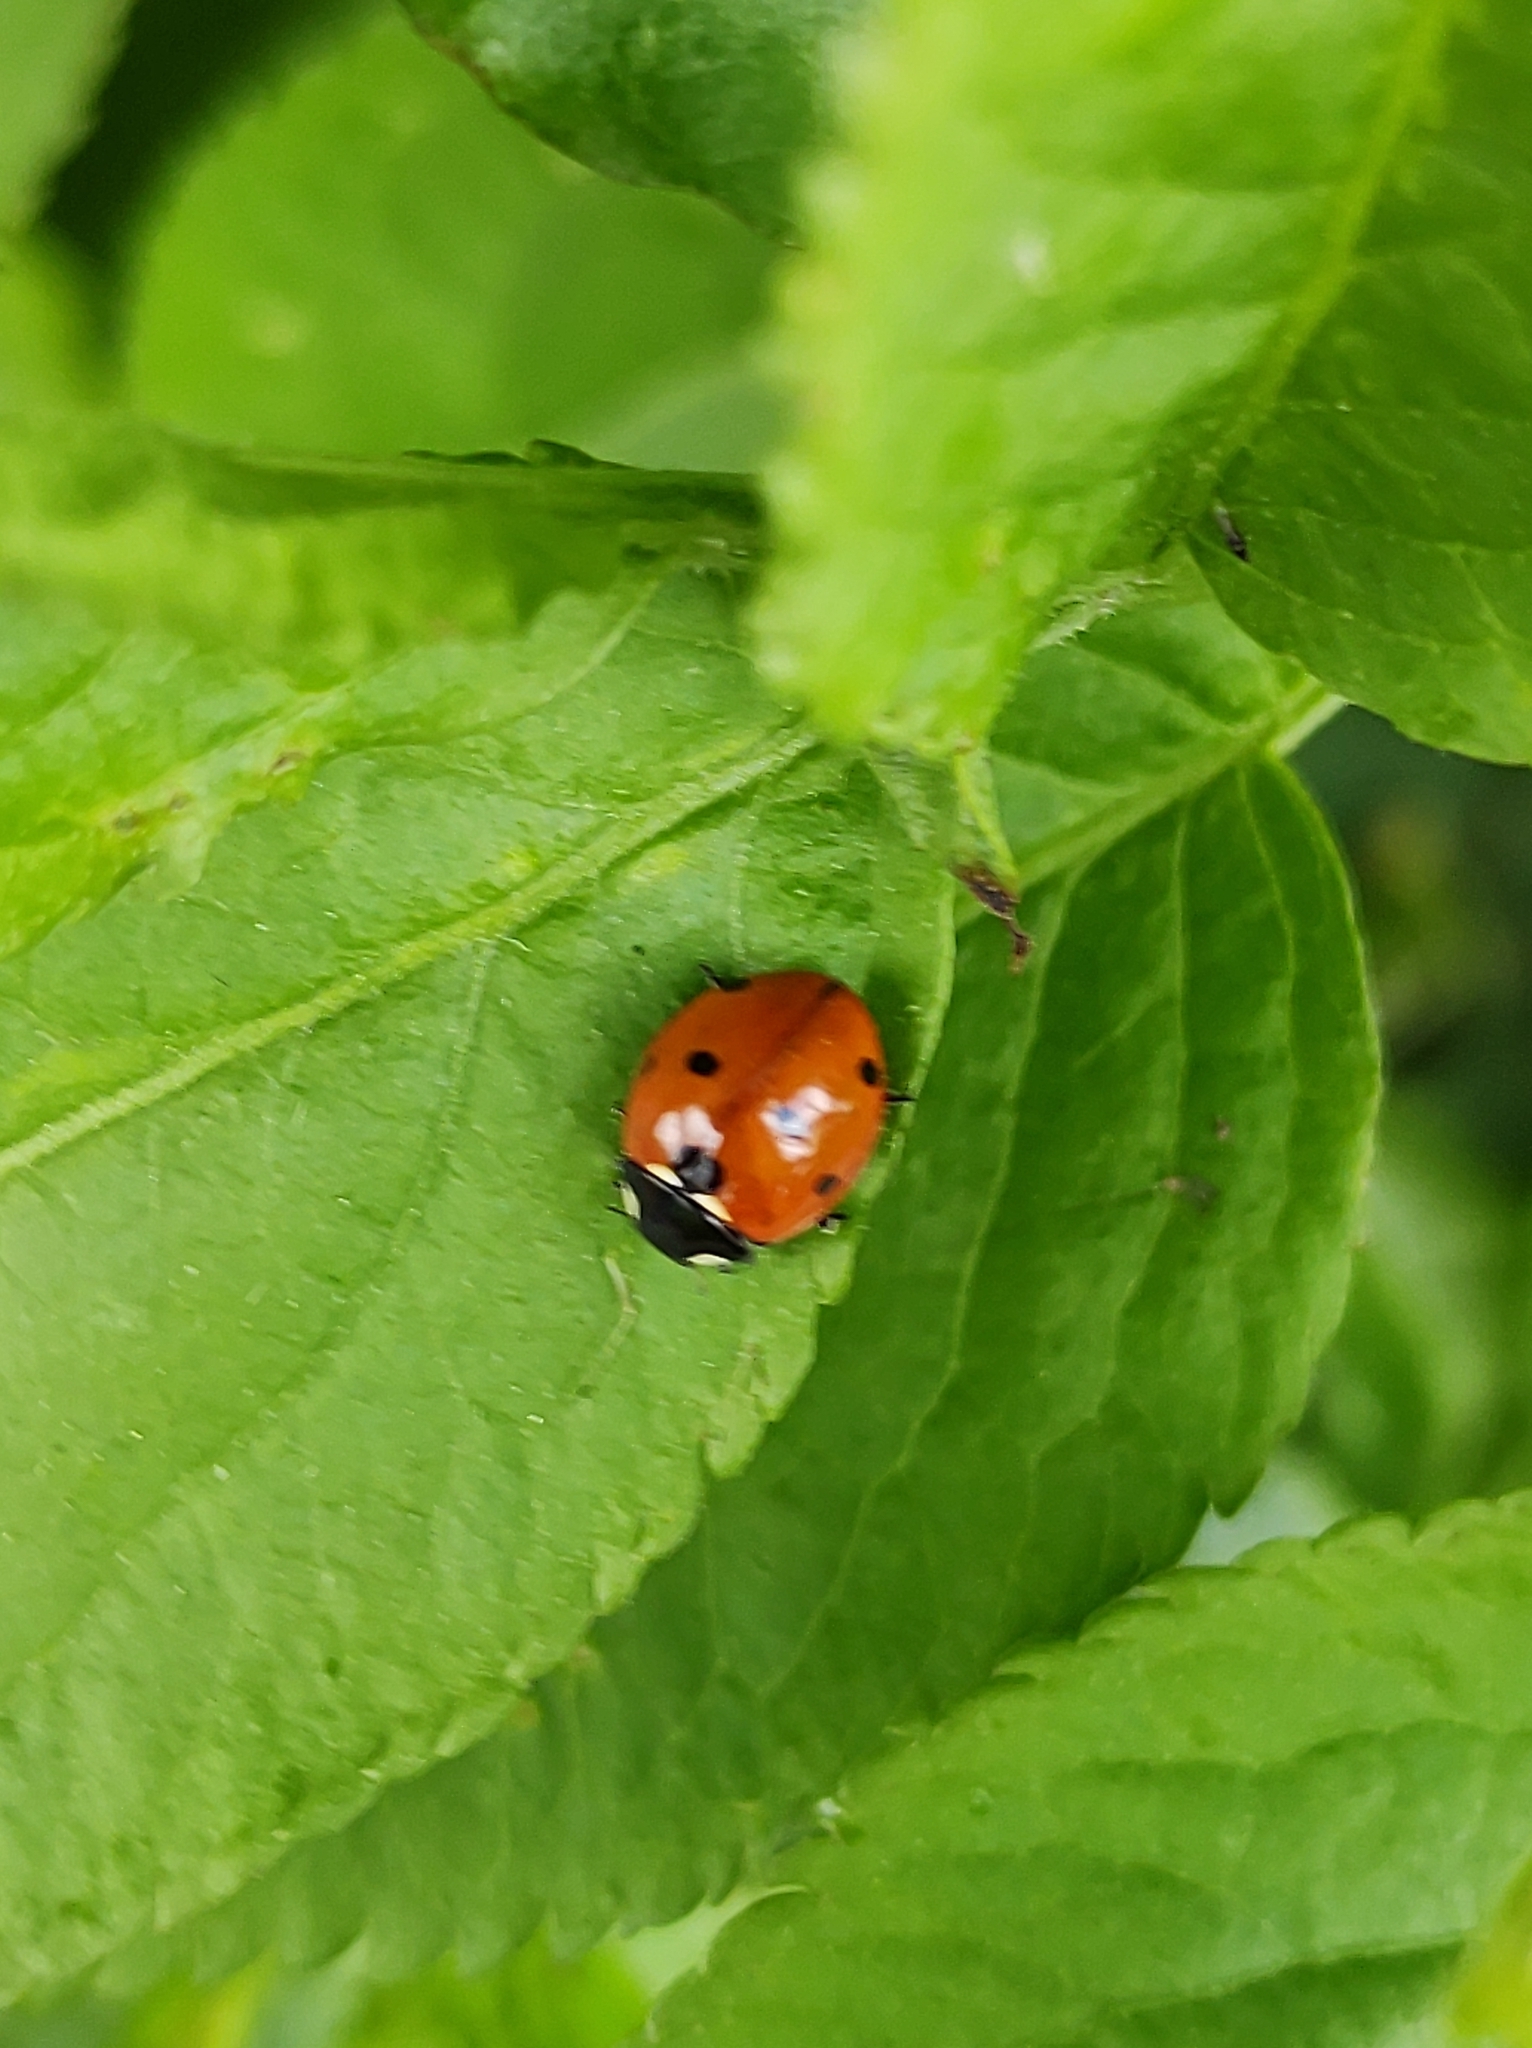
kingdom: Animalia
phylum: Arthropoda
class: Insecta
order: Coleoptera
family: Coccinellidae
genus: Coccinella
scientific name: Coccinella septempunctata
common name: Sevenspotted lady beetle
